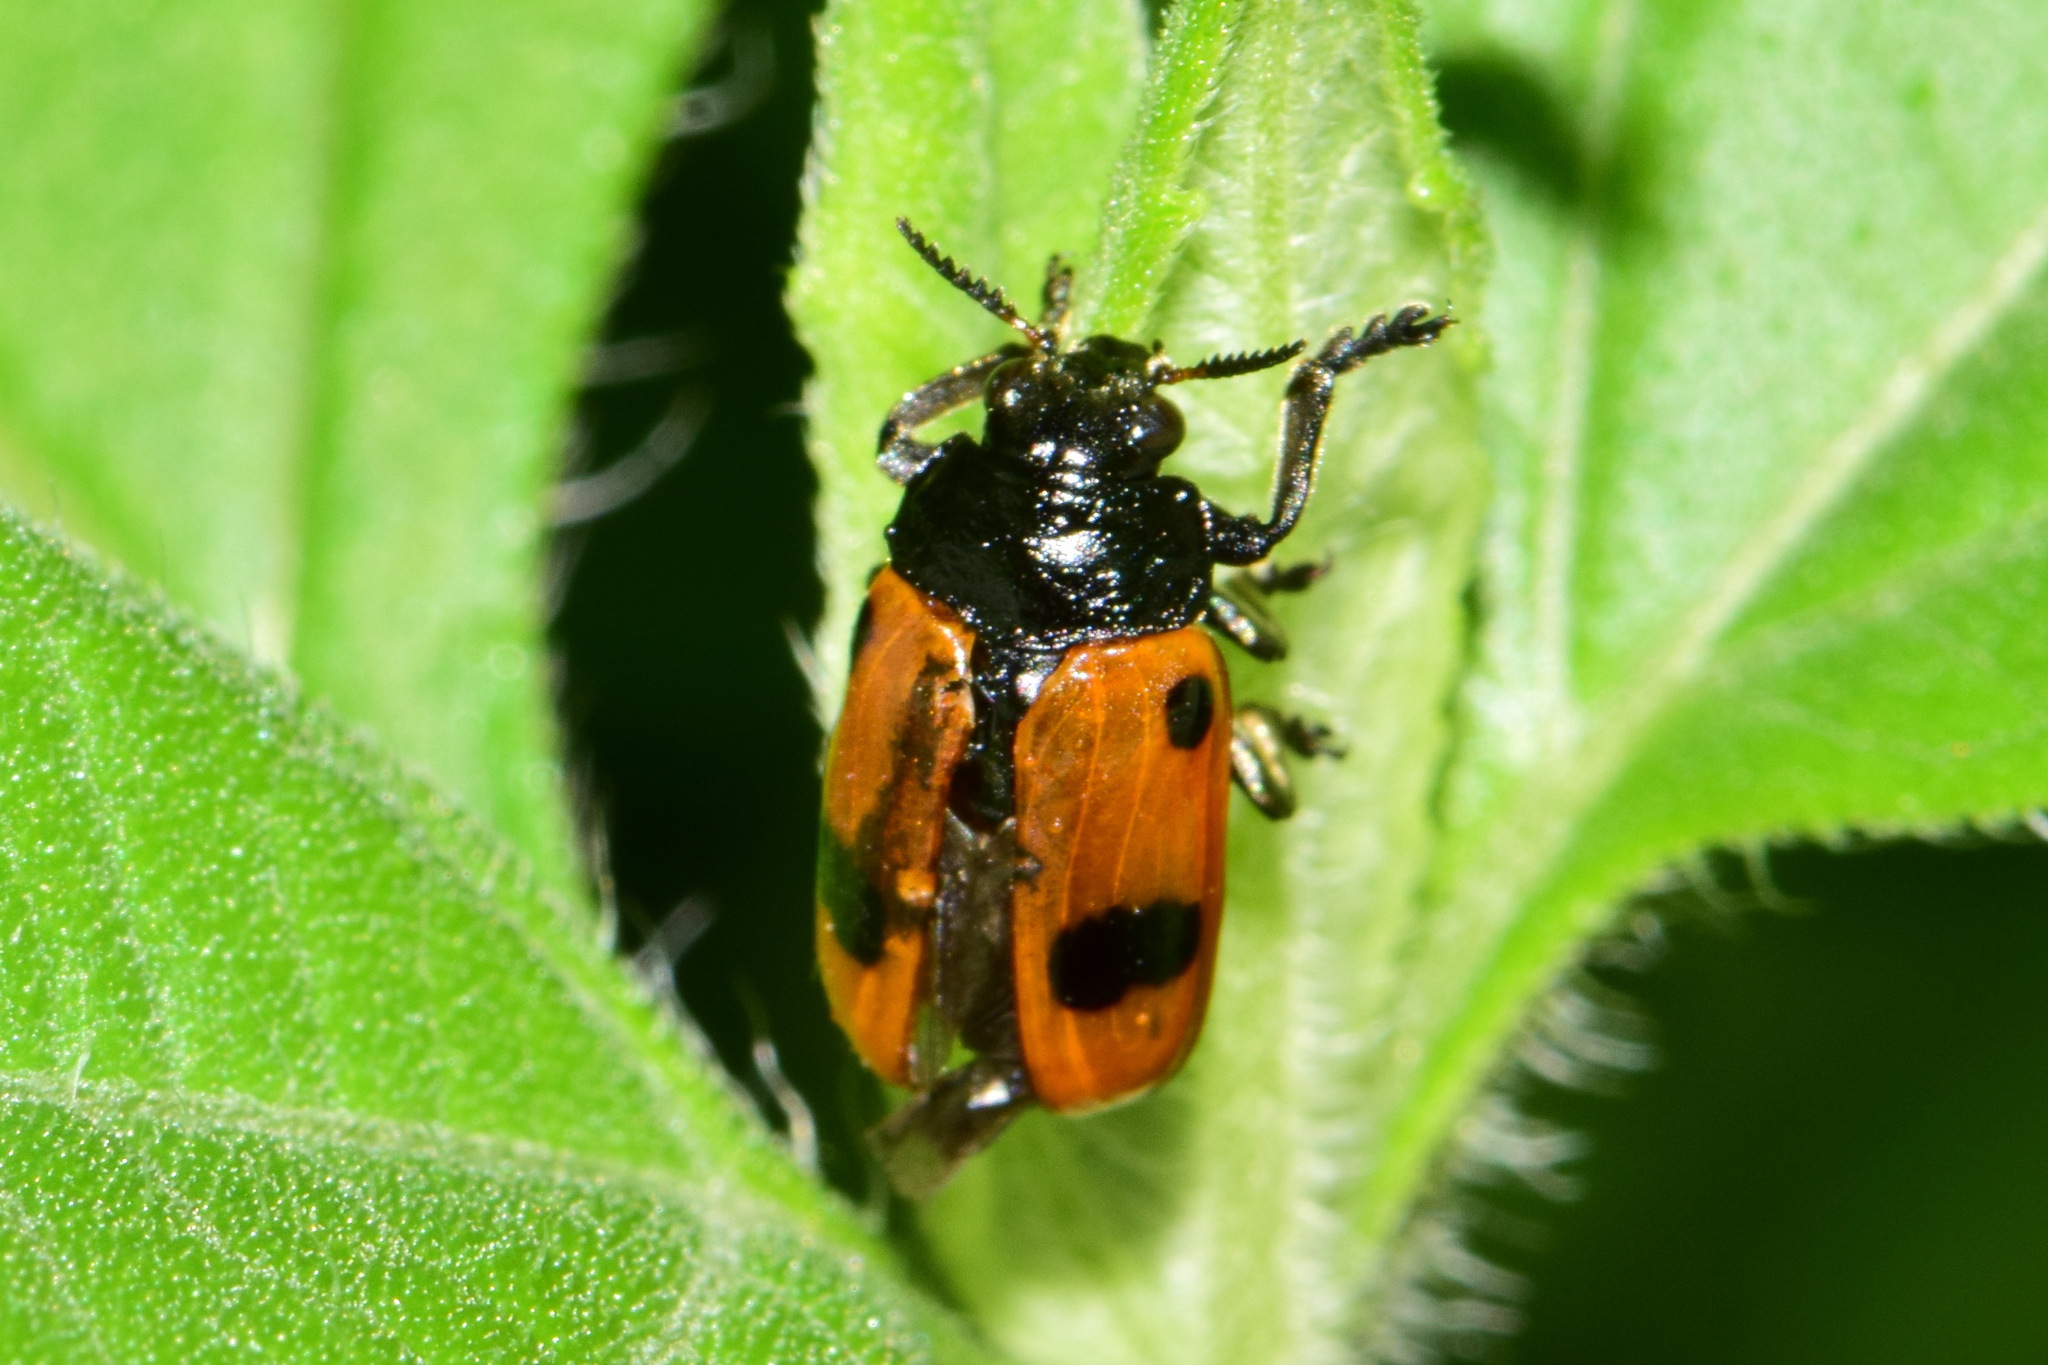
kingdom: Animalia
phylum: Arthropoda
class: Insecta
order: Coleoptera
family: Chrysomelidae
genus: Clytra
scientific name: Clytra quadripunctata
